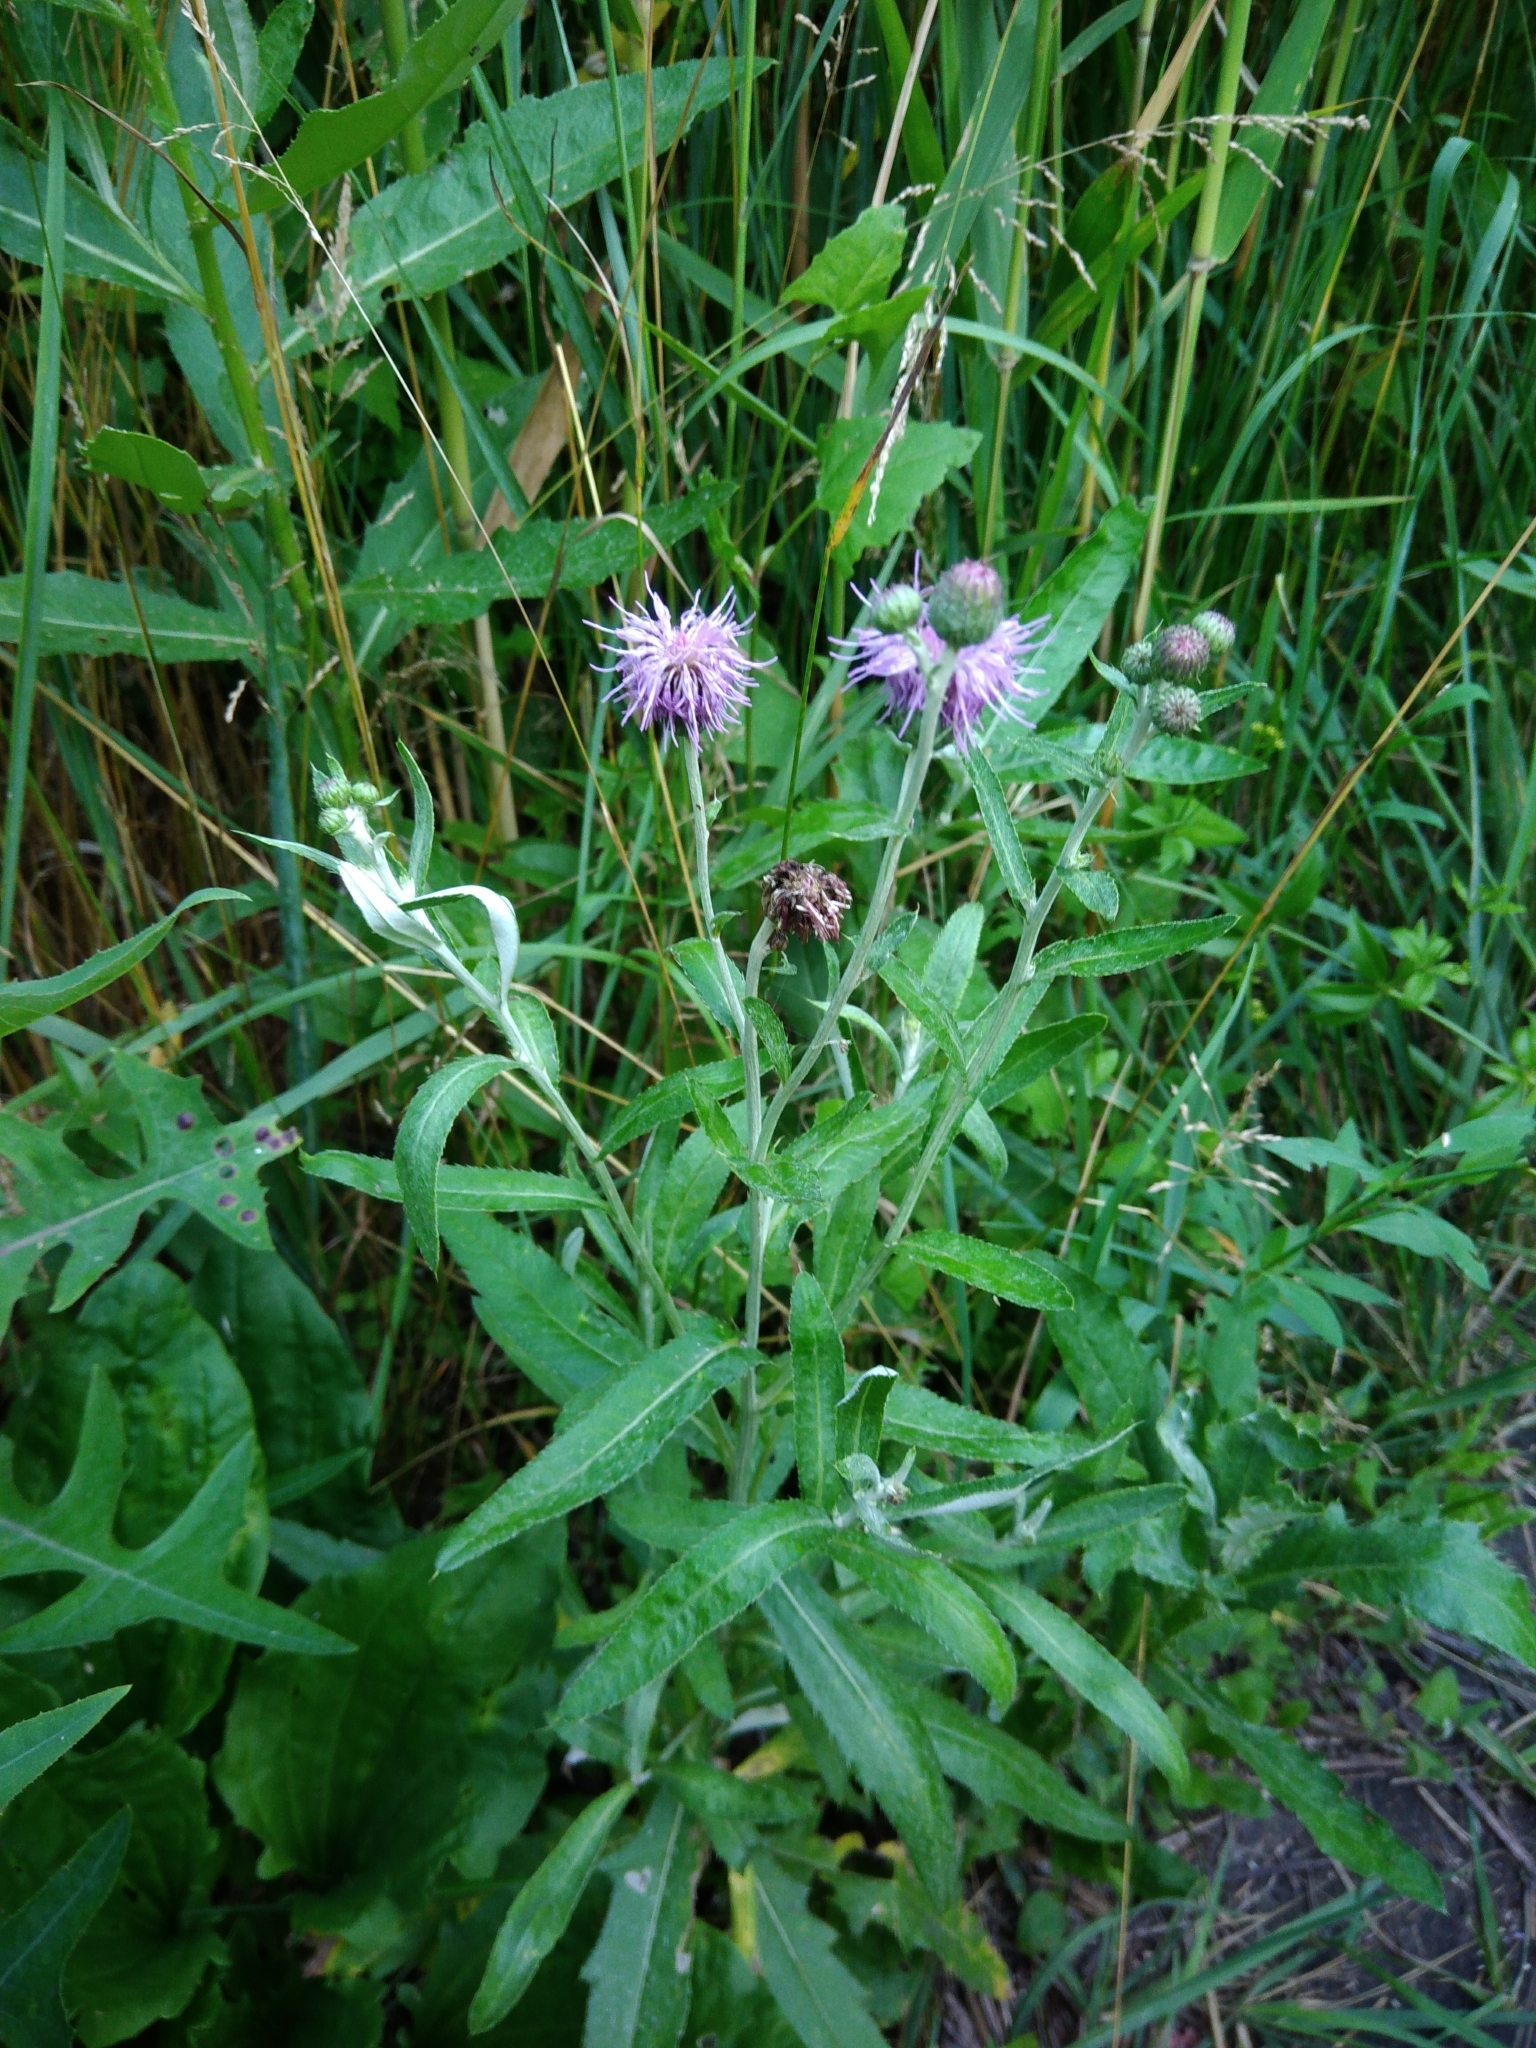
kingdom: Plantae
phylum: Tracheophyta
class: Magnoliopsida
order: Asterales
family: Asteraceae
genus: Cirsium
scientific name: Cirsium arvense
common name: Creeping thistle
